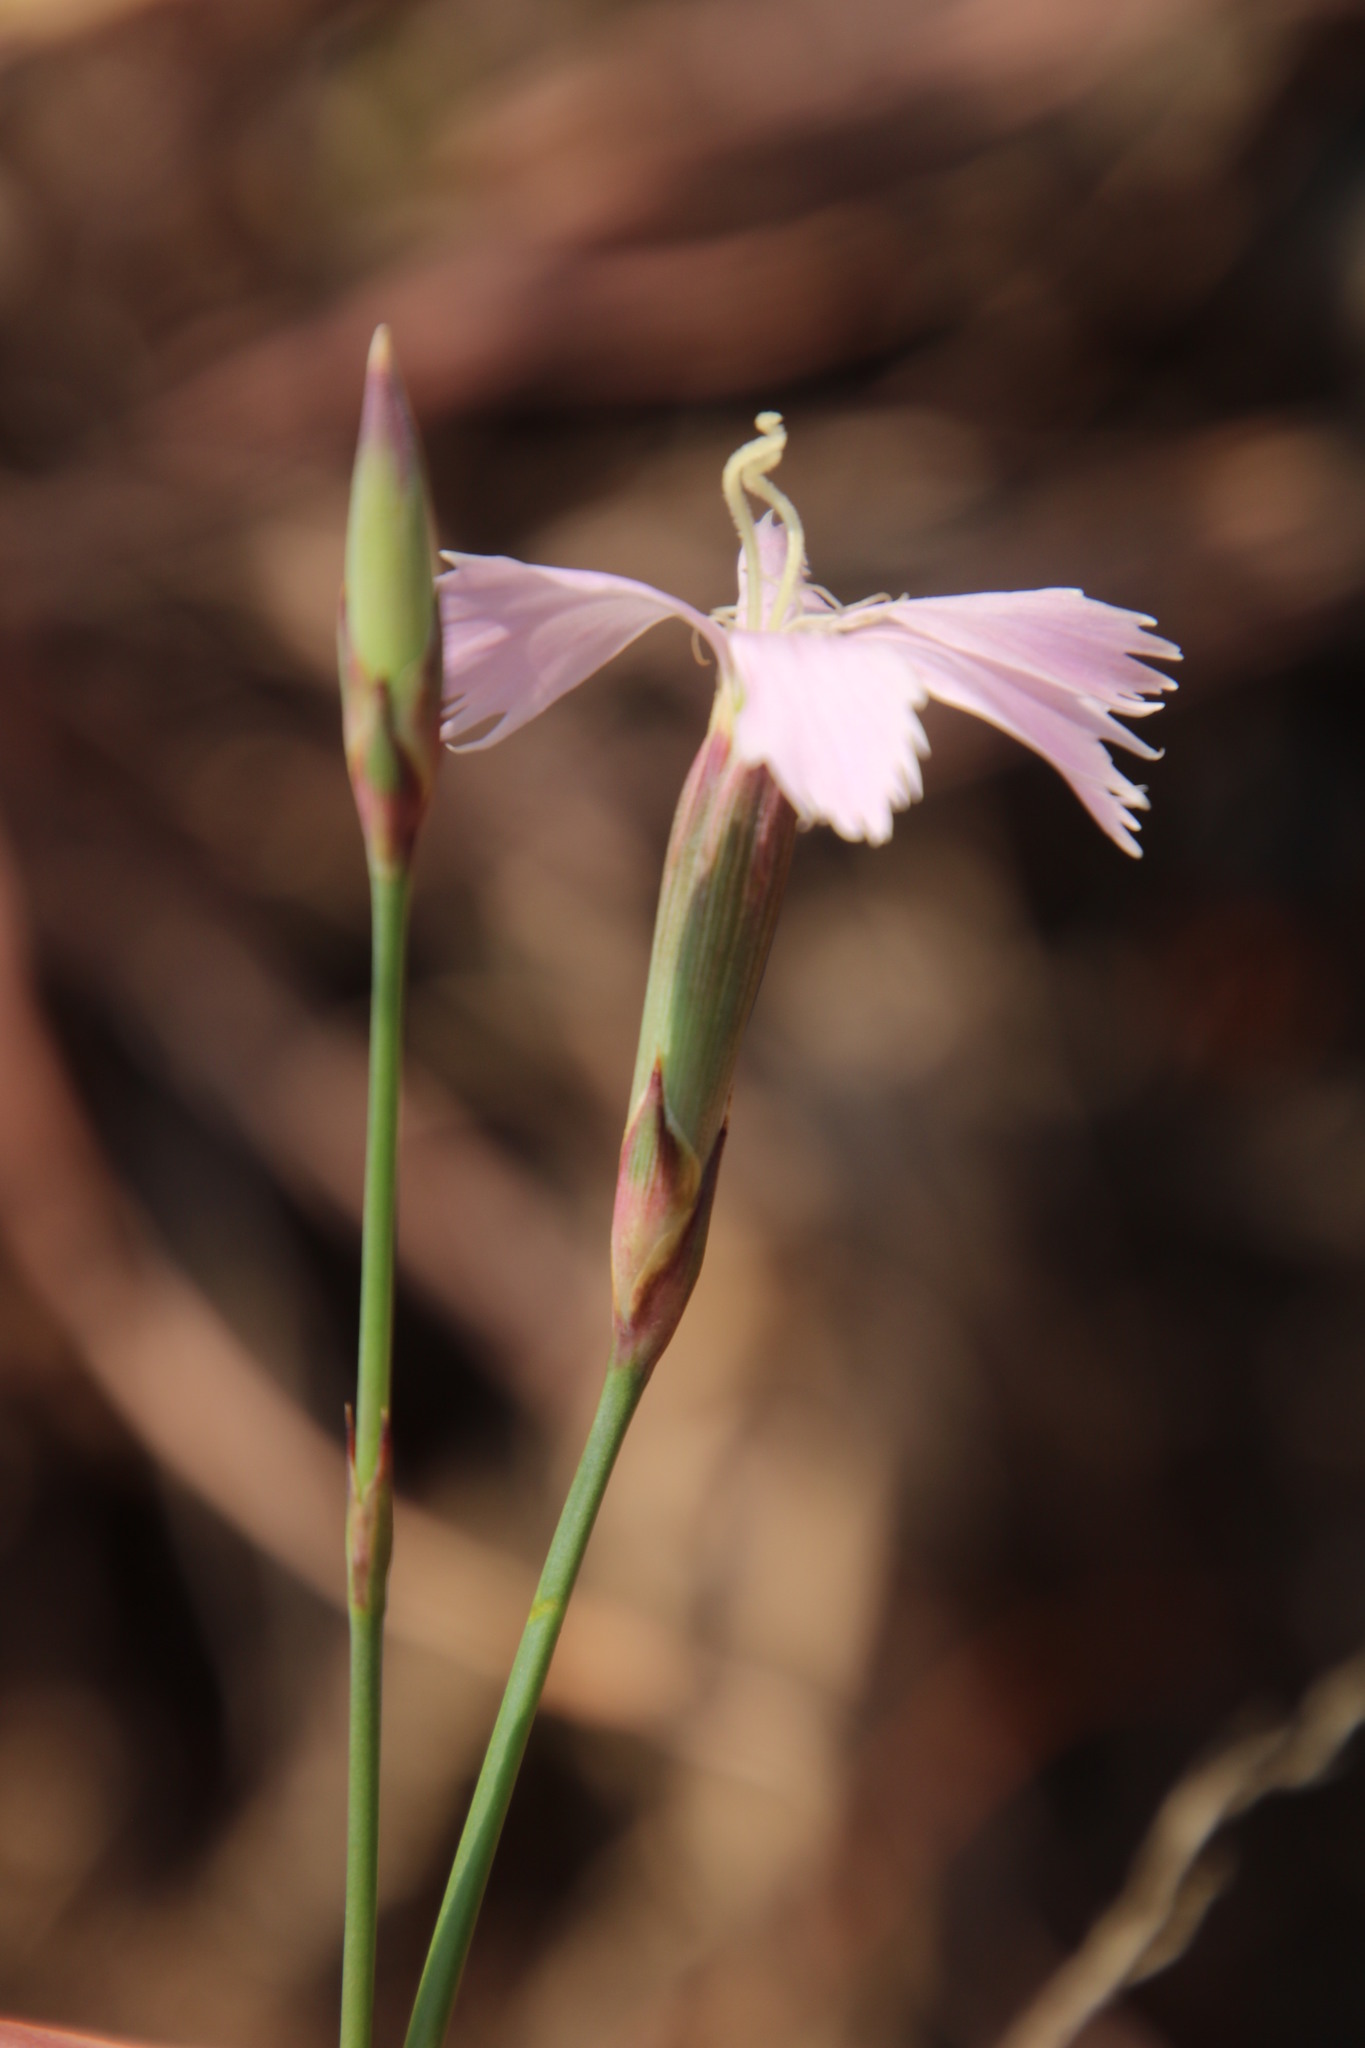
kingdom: Plantae
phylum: Tracheophyta
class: Magnoliopsida
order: Caryophyllales
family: Caryophyllaceae
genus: Dianthus
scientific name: Dianthus zeyheri
